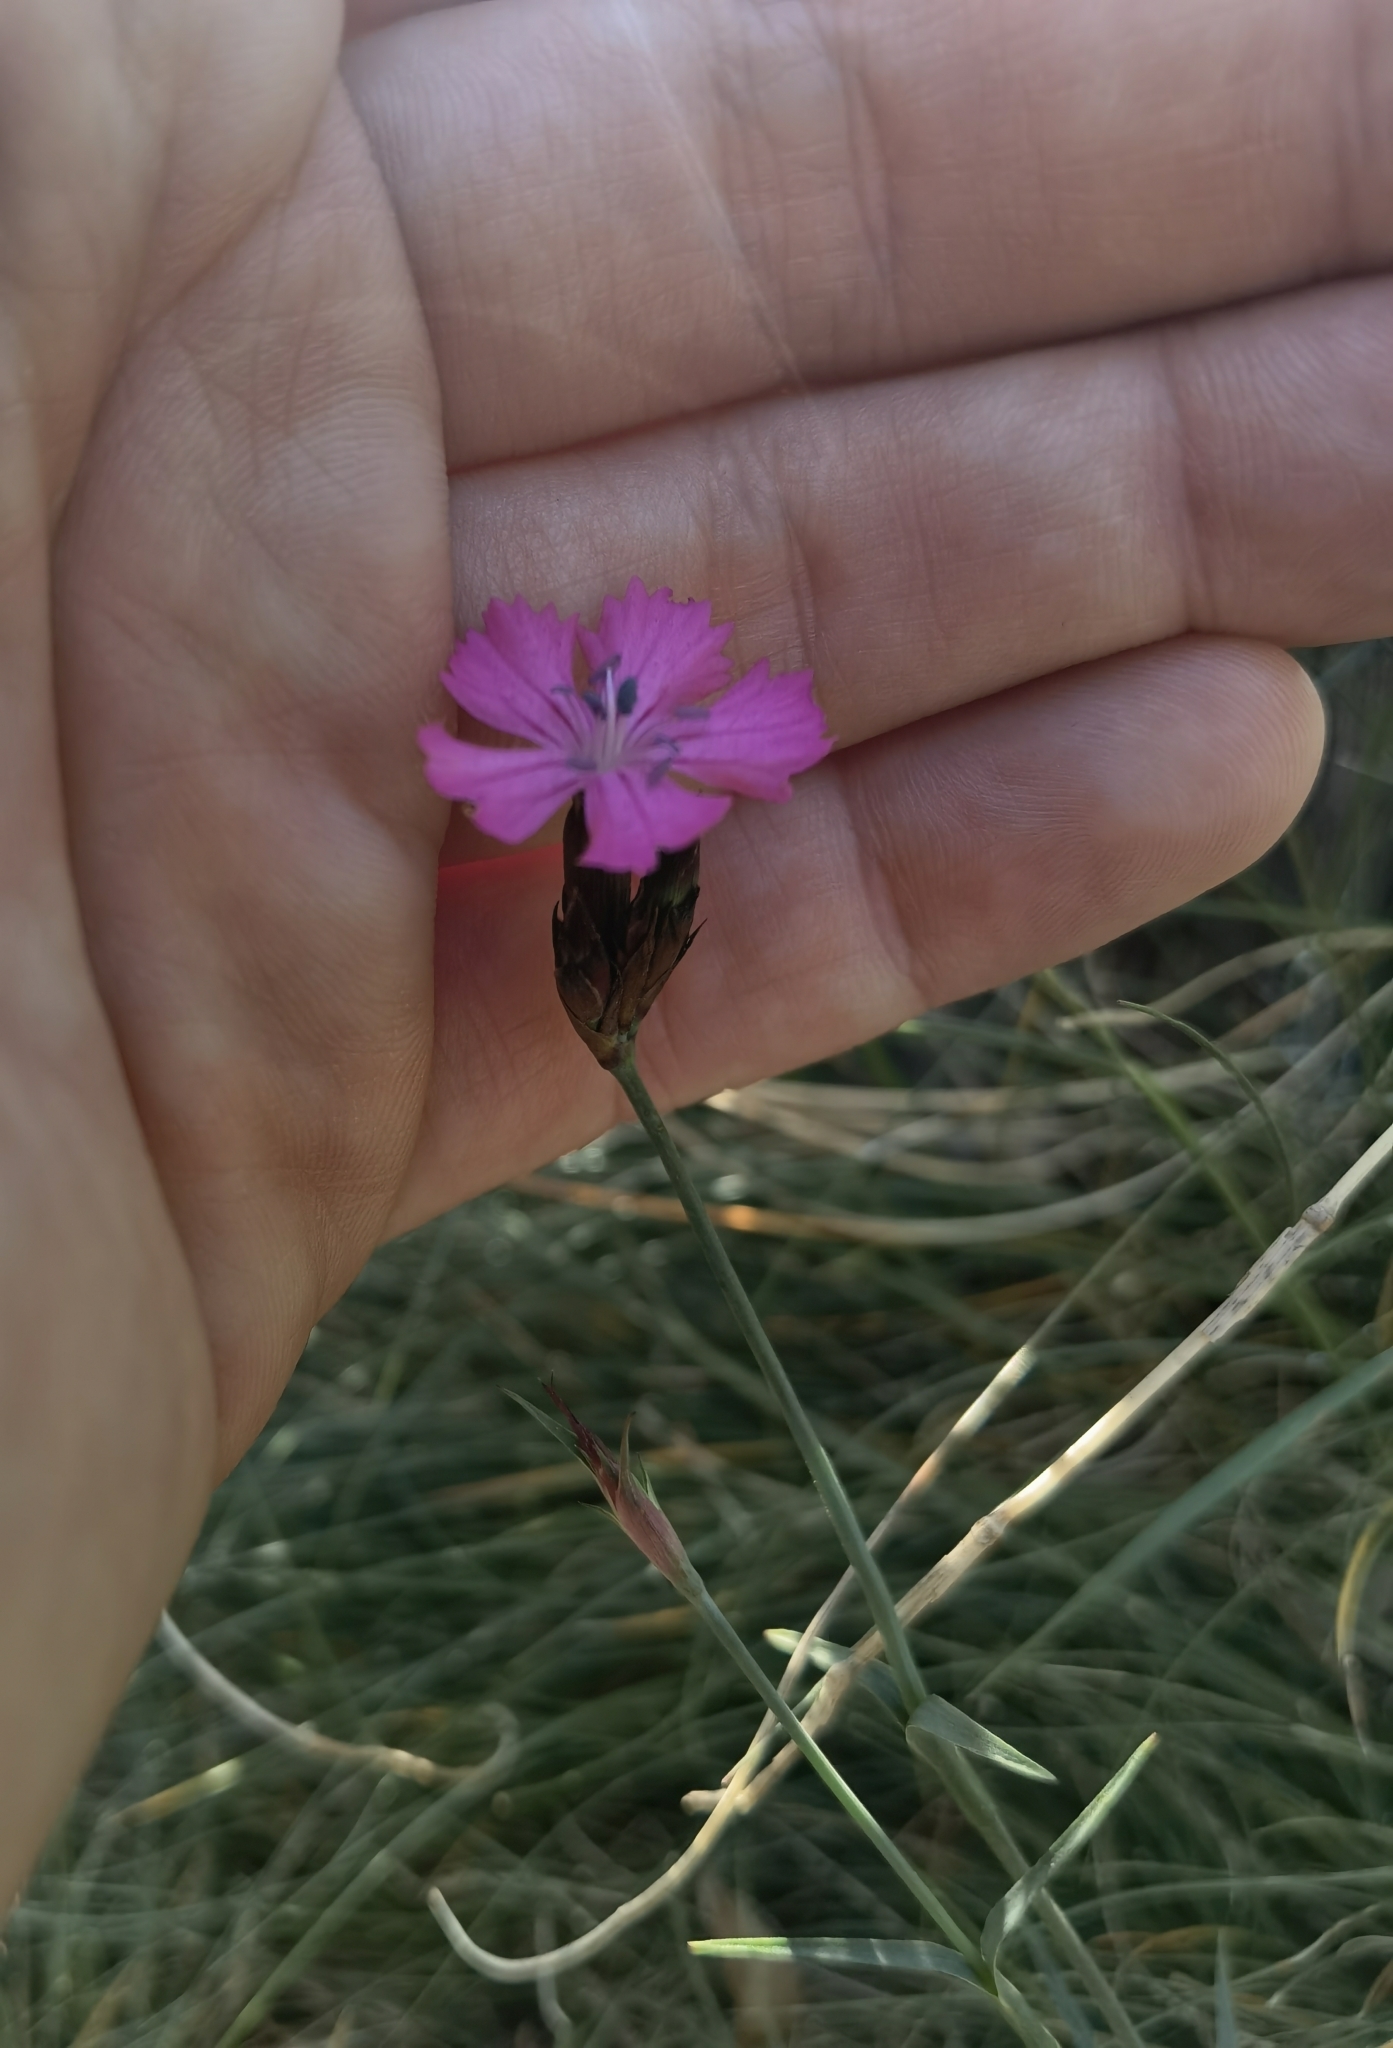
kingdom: Plantae
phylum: Tracheophyta
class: Magnoliopsida
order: Caryophyllales
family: Caryophyllaceae
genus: Dianthus
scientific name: Dianthus carthusianorum
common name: Carthusian pink
